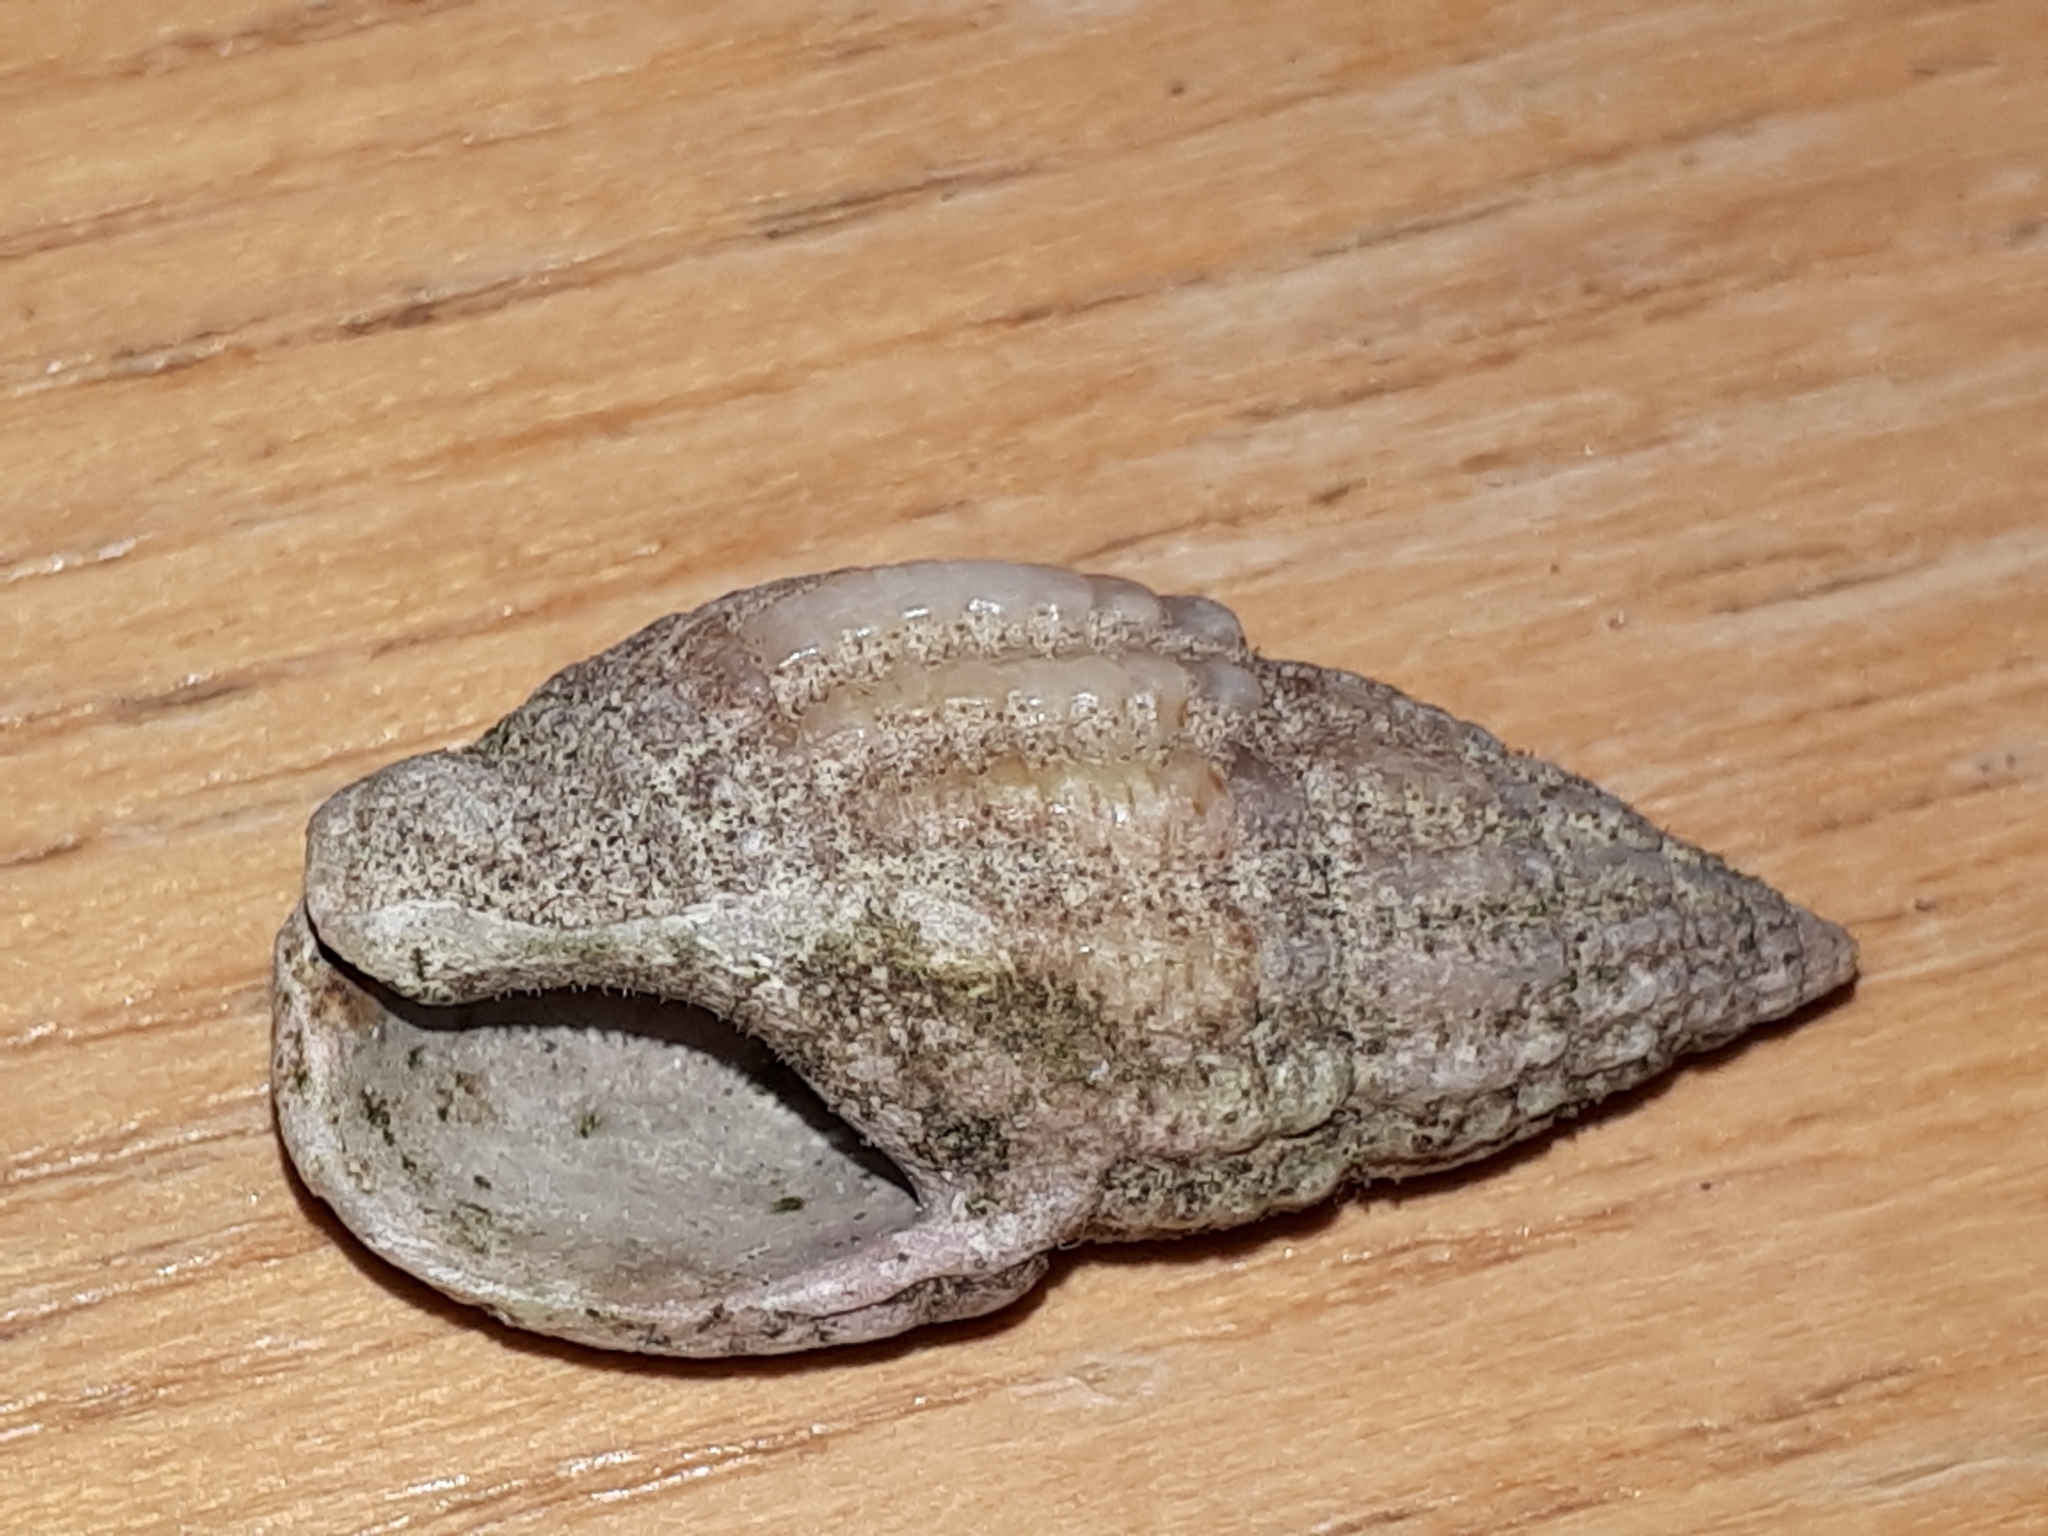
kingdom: Animalia
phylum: Mollusca
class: Gastropoda
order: Neogastropoda
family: Nassariidae
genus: Tritia
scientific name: Tritia nitida
